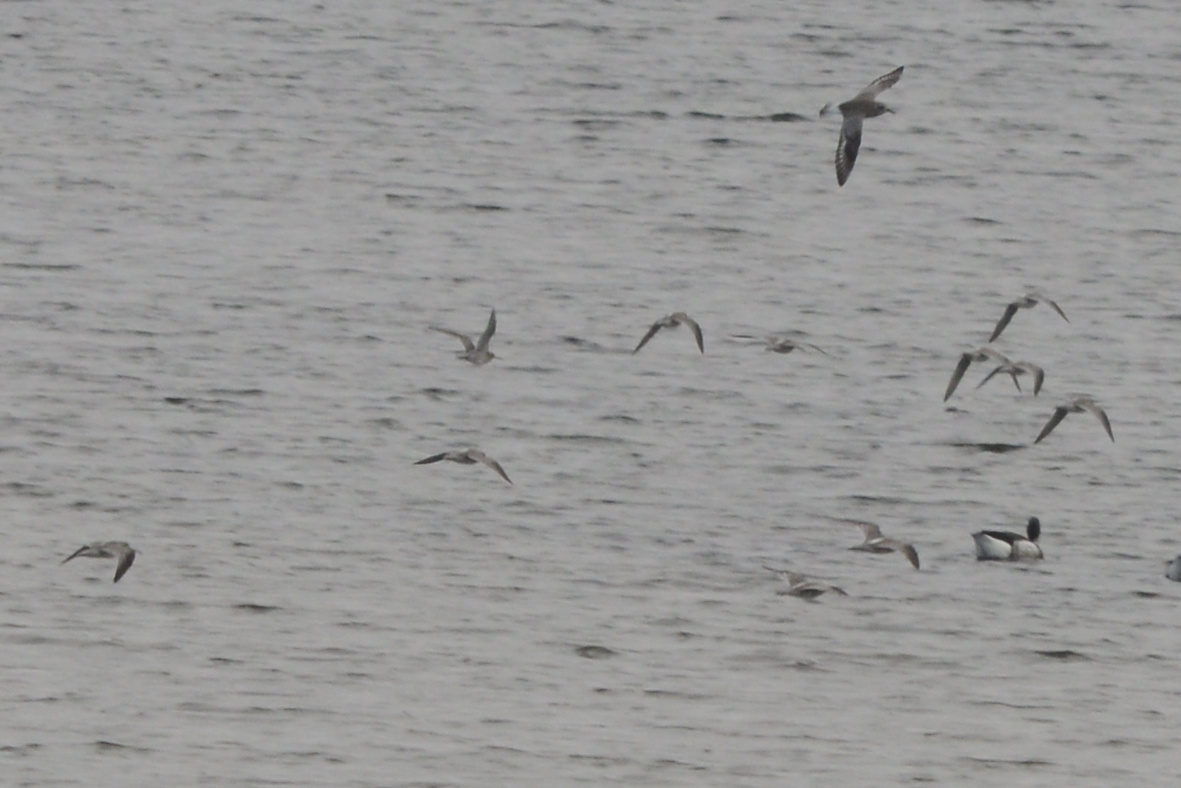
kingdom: Animalia
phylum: Chordata
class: Aves
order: Charadriiformes
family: Scolopacidae
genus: Limnodromus
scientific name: Limnodromus
